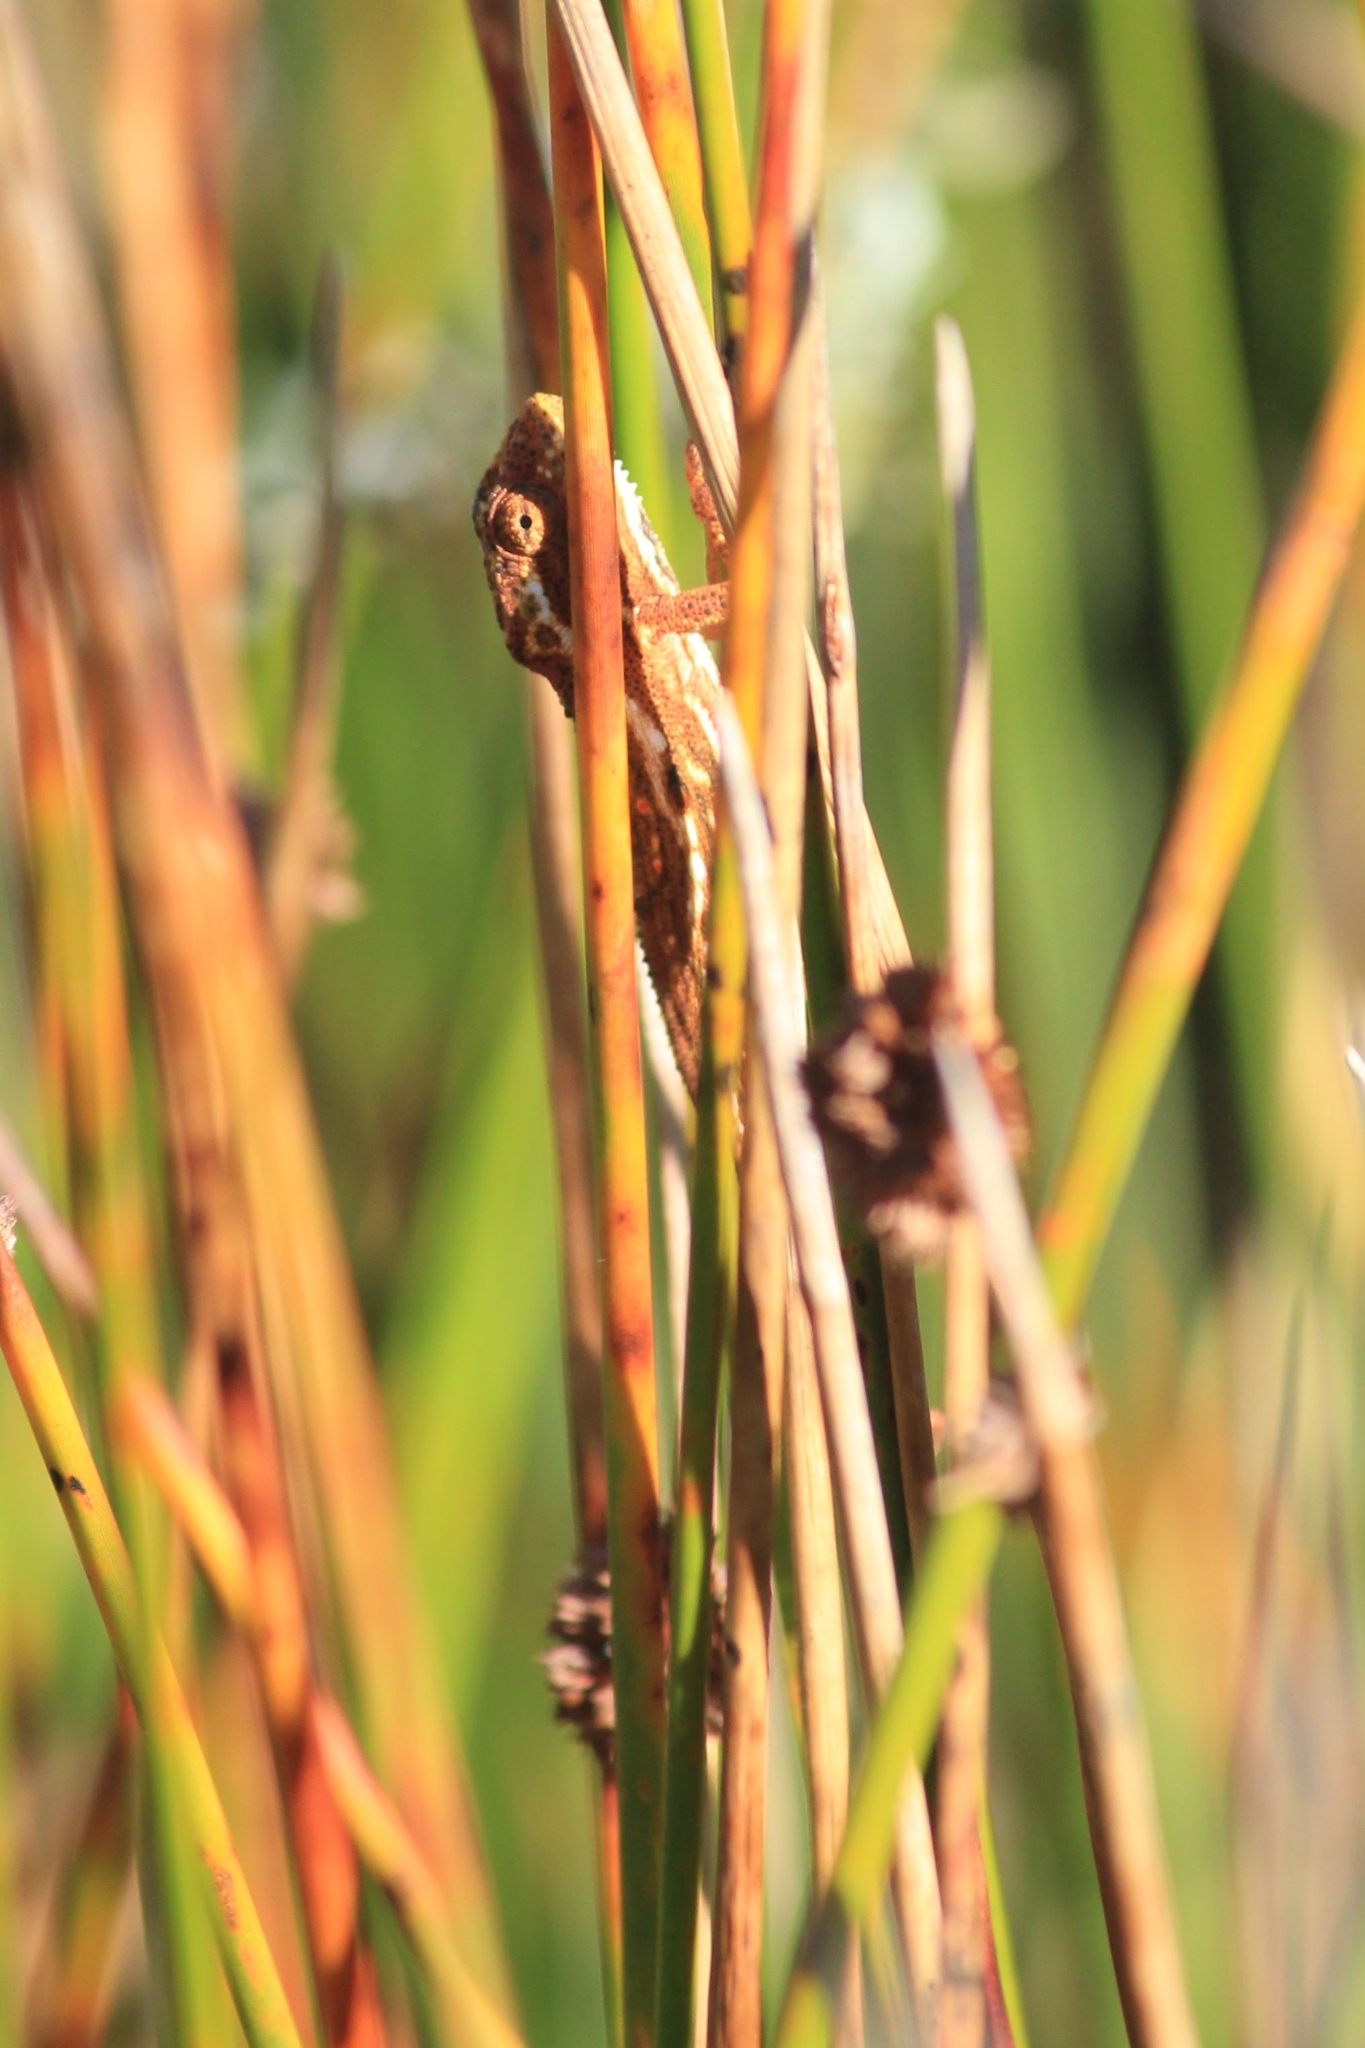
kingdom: Animalia
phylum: Chordata
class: Squamata
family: Chamaeleonidae
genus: Bradypodion
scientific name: Bradypodion pumilum
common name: Cape dwarf chameleon
